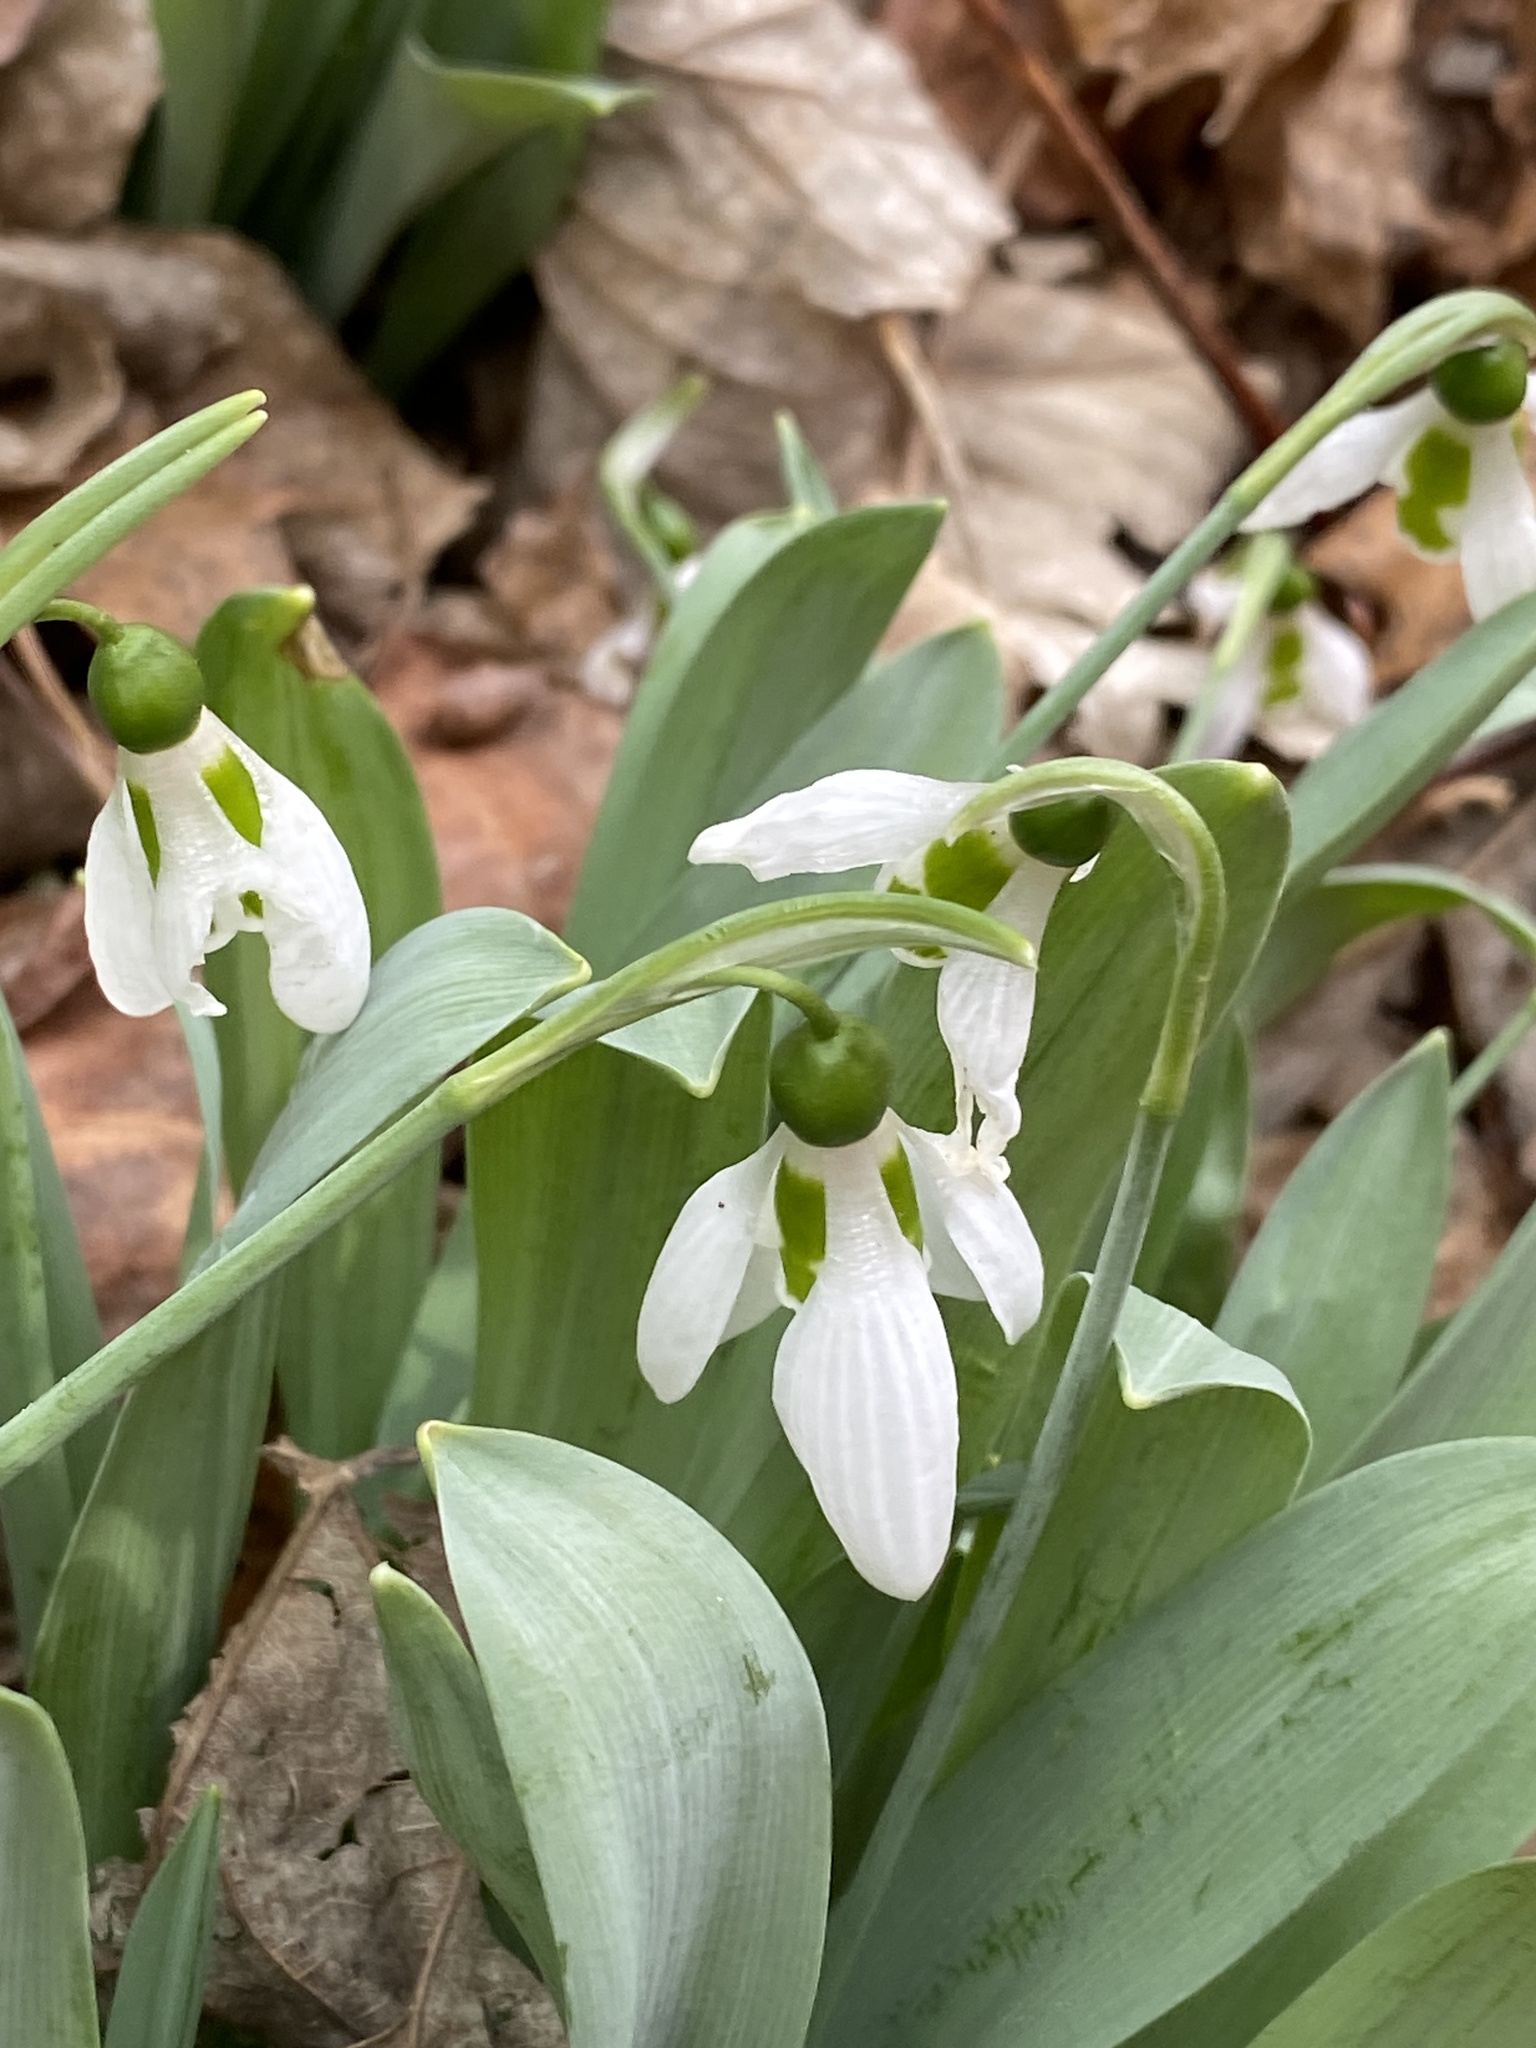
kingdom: Plantae
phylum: Tracheophyta
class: Liliopsida
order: Asparagales
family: Amaryllidaceae
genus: Galanthus
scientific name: Galanthus elwesii
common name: Greater snowdrop
